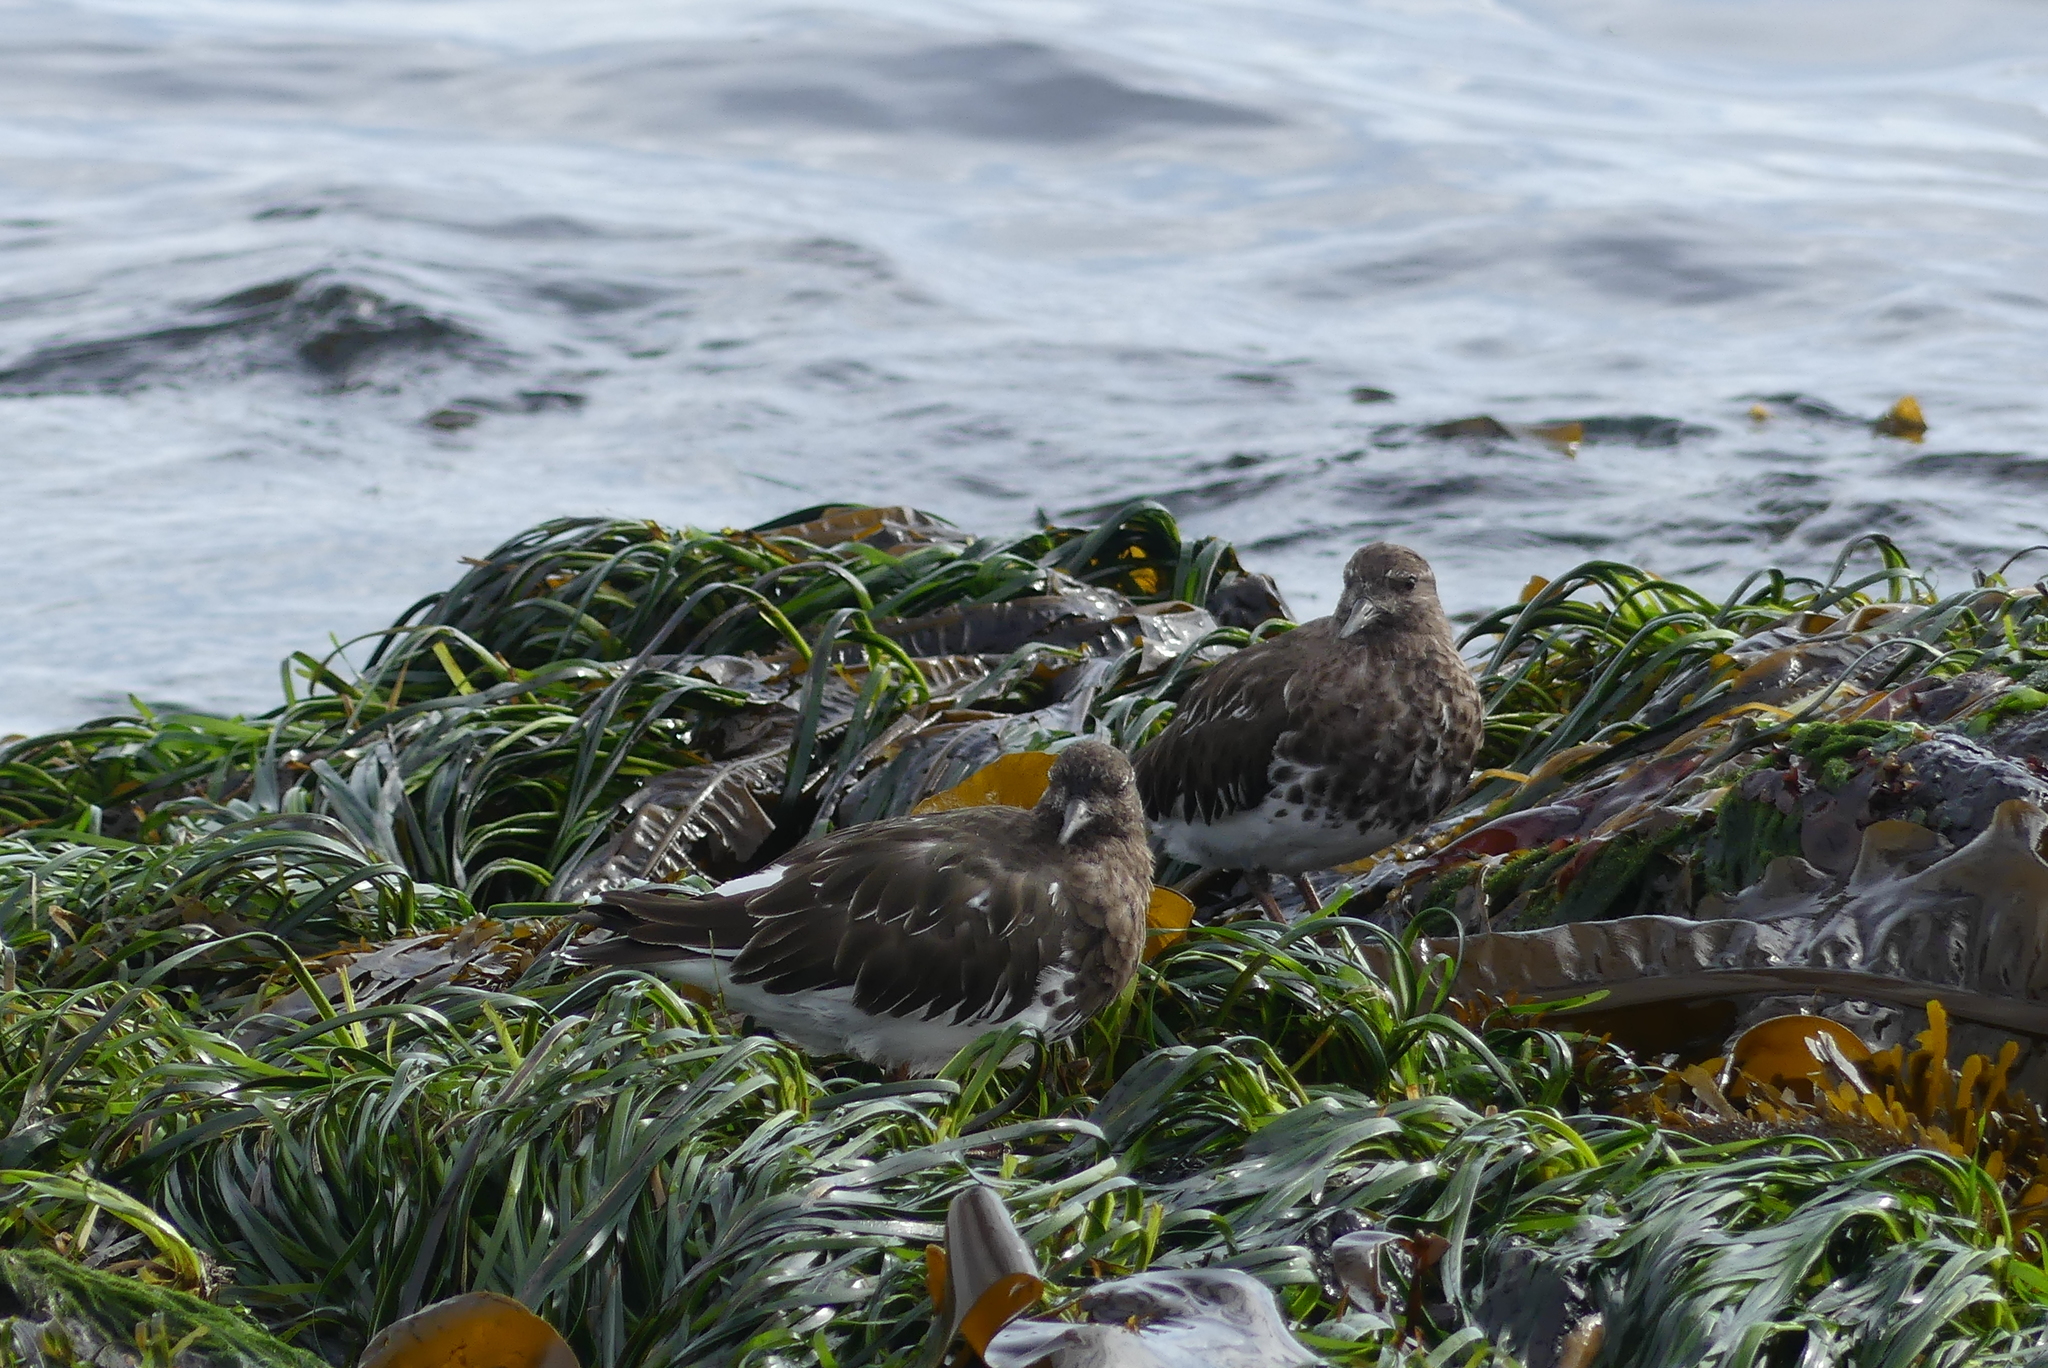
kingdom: Animalia
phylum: Chordata
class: Aves
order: Charadriiformes
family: Scolopacidae
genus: Arenaria
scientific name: Arenaria melanocephala
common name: Black turnstone
